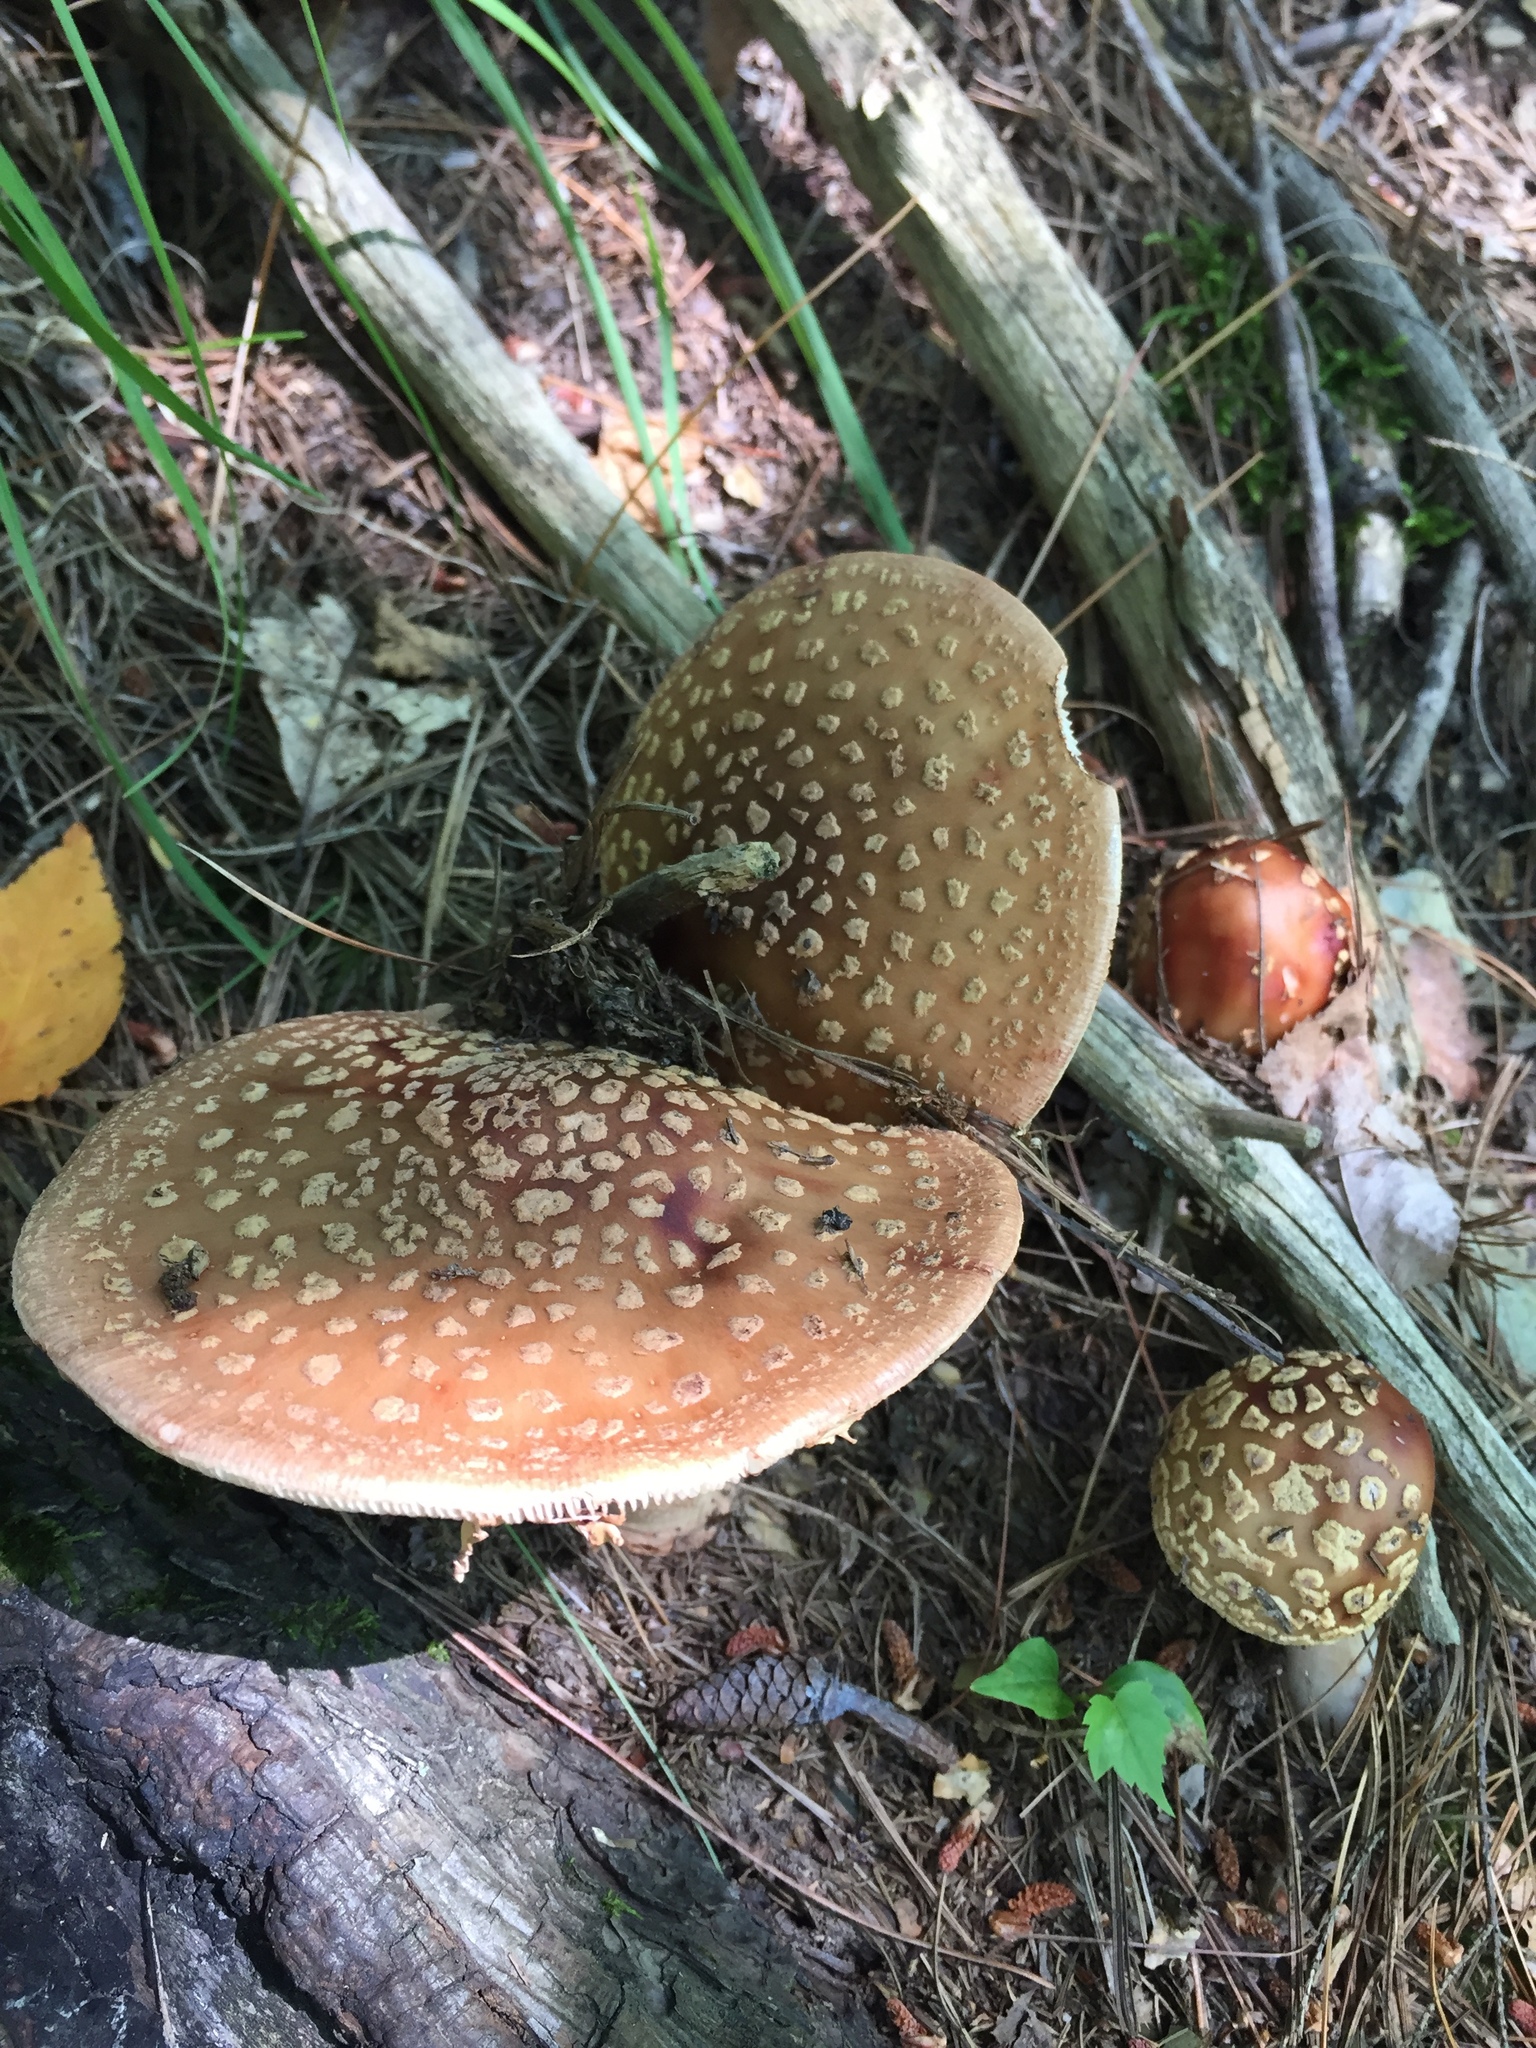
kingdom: Fungi
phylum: Basidiomycota
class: Agaricomycetes
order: Agaricales
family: Amanitaceae
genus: Amanita
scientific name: Amanita rubescens
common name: Blusher
